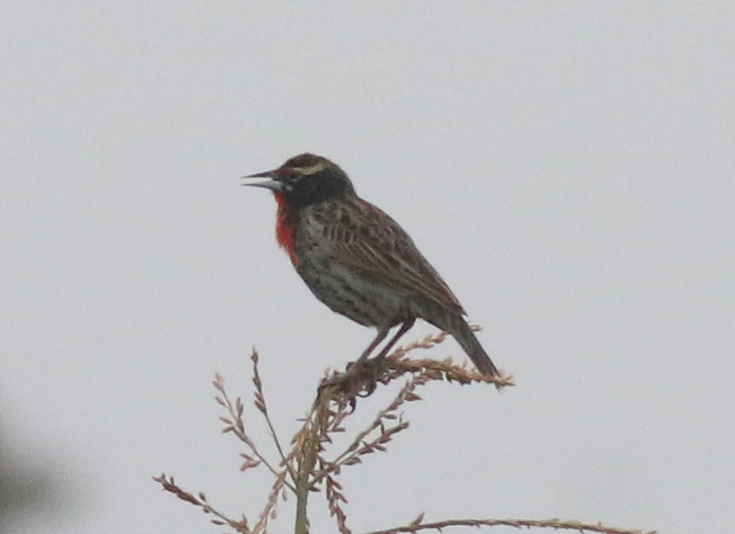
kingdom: Animalia
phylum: Chordata
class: Aves
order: Passeriformes
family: Icteridae
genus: Sturnella
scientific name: Sturnella bellicosa
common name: Peruvian meadowlark
